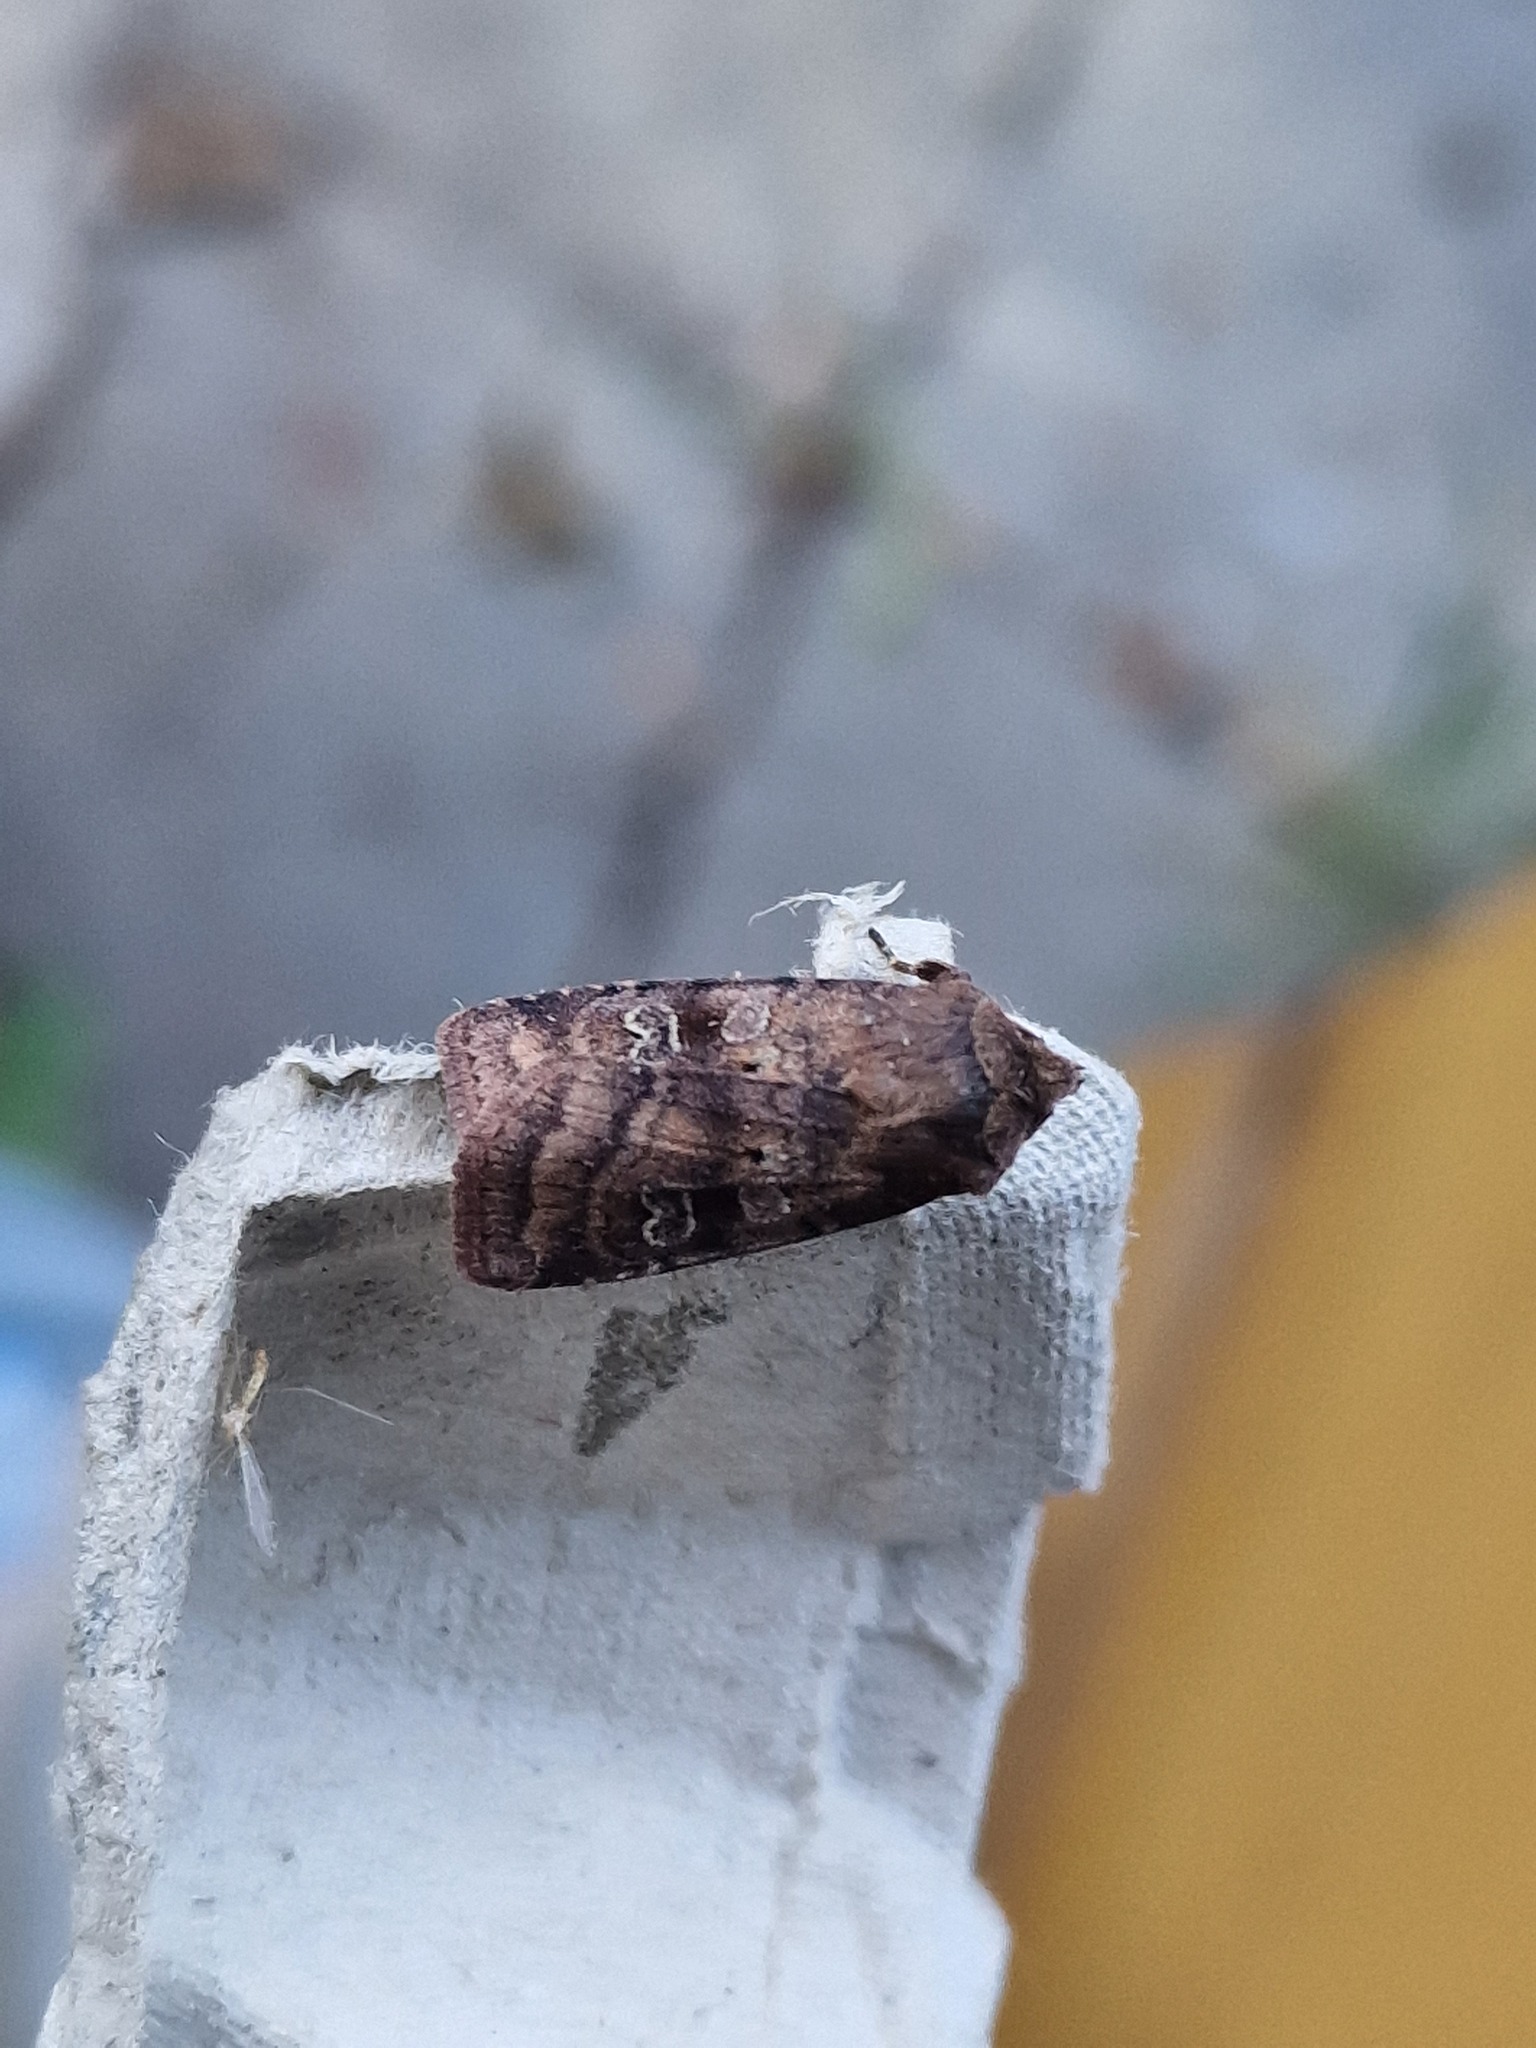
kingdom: Animalia
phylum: Arthropoda
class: Insecta
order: Lepidoptera
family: Noctuidae
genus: Diarsia
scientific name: Diarsia rubi
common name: Small square-spot
